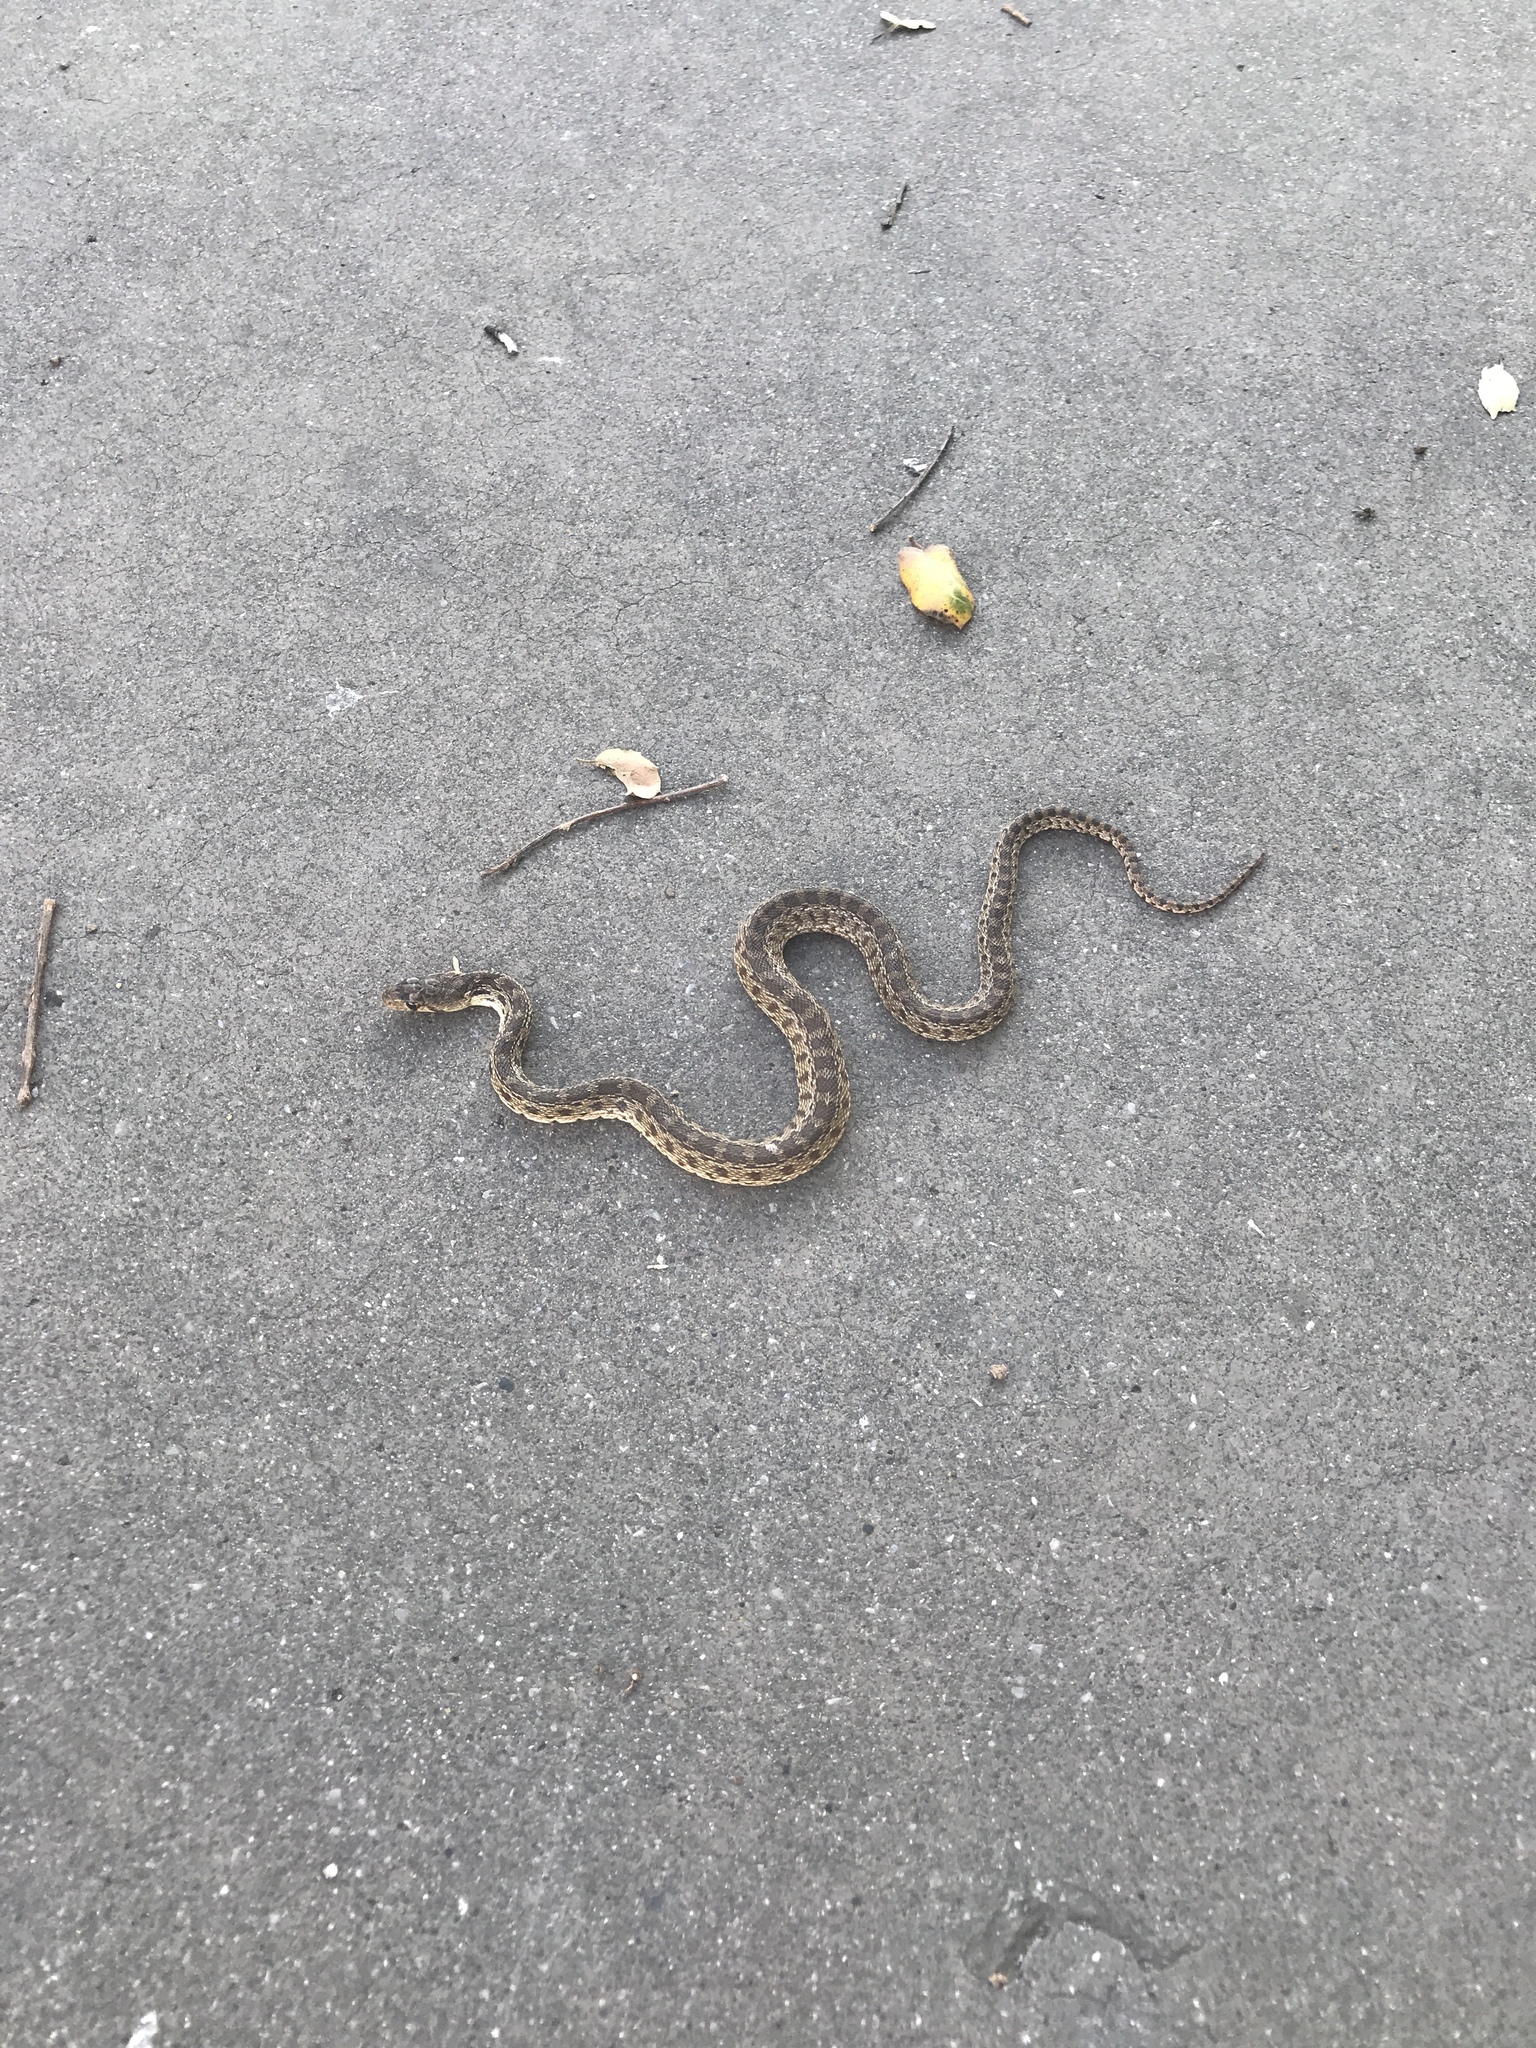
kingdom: Animalia
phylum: Chordata
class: Squamata
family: Colubridae
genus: Pituophis
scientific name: Pituophis catenifer
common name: Gopher snake
